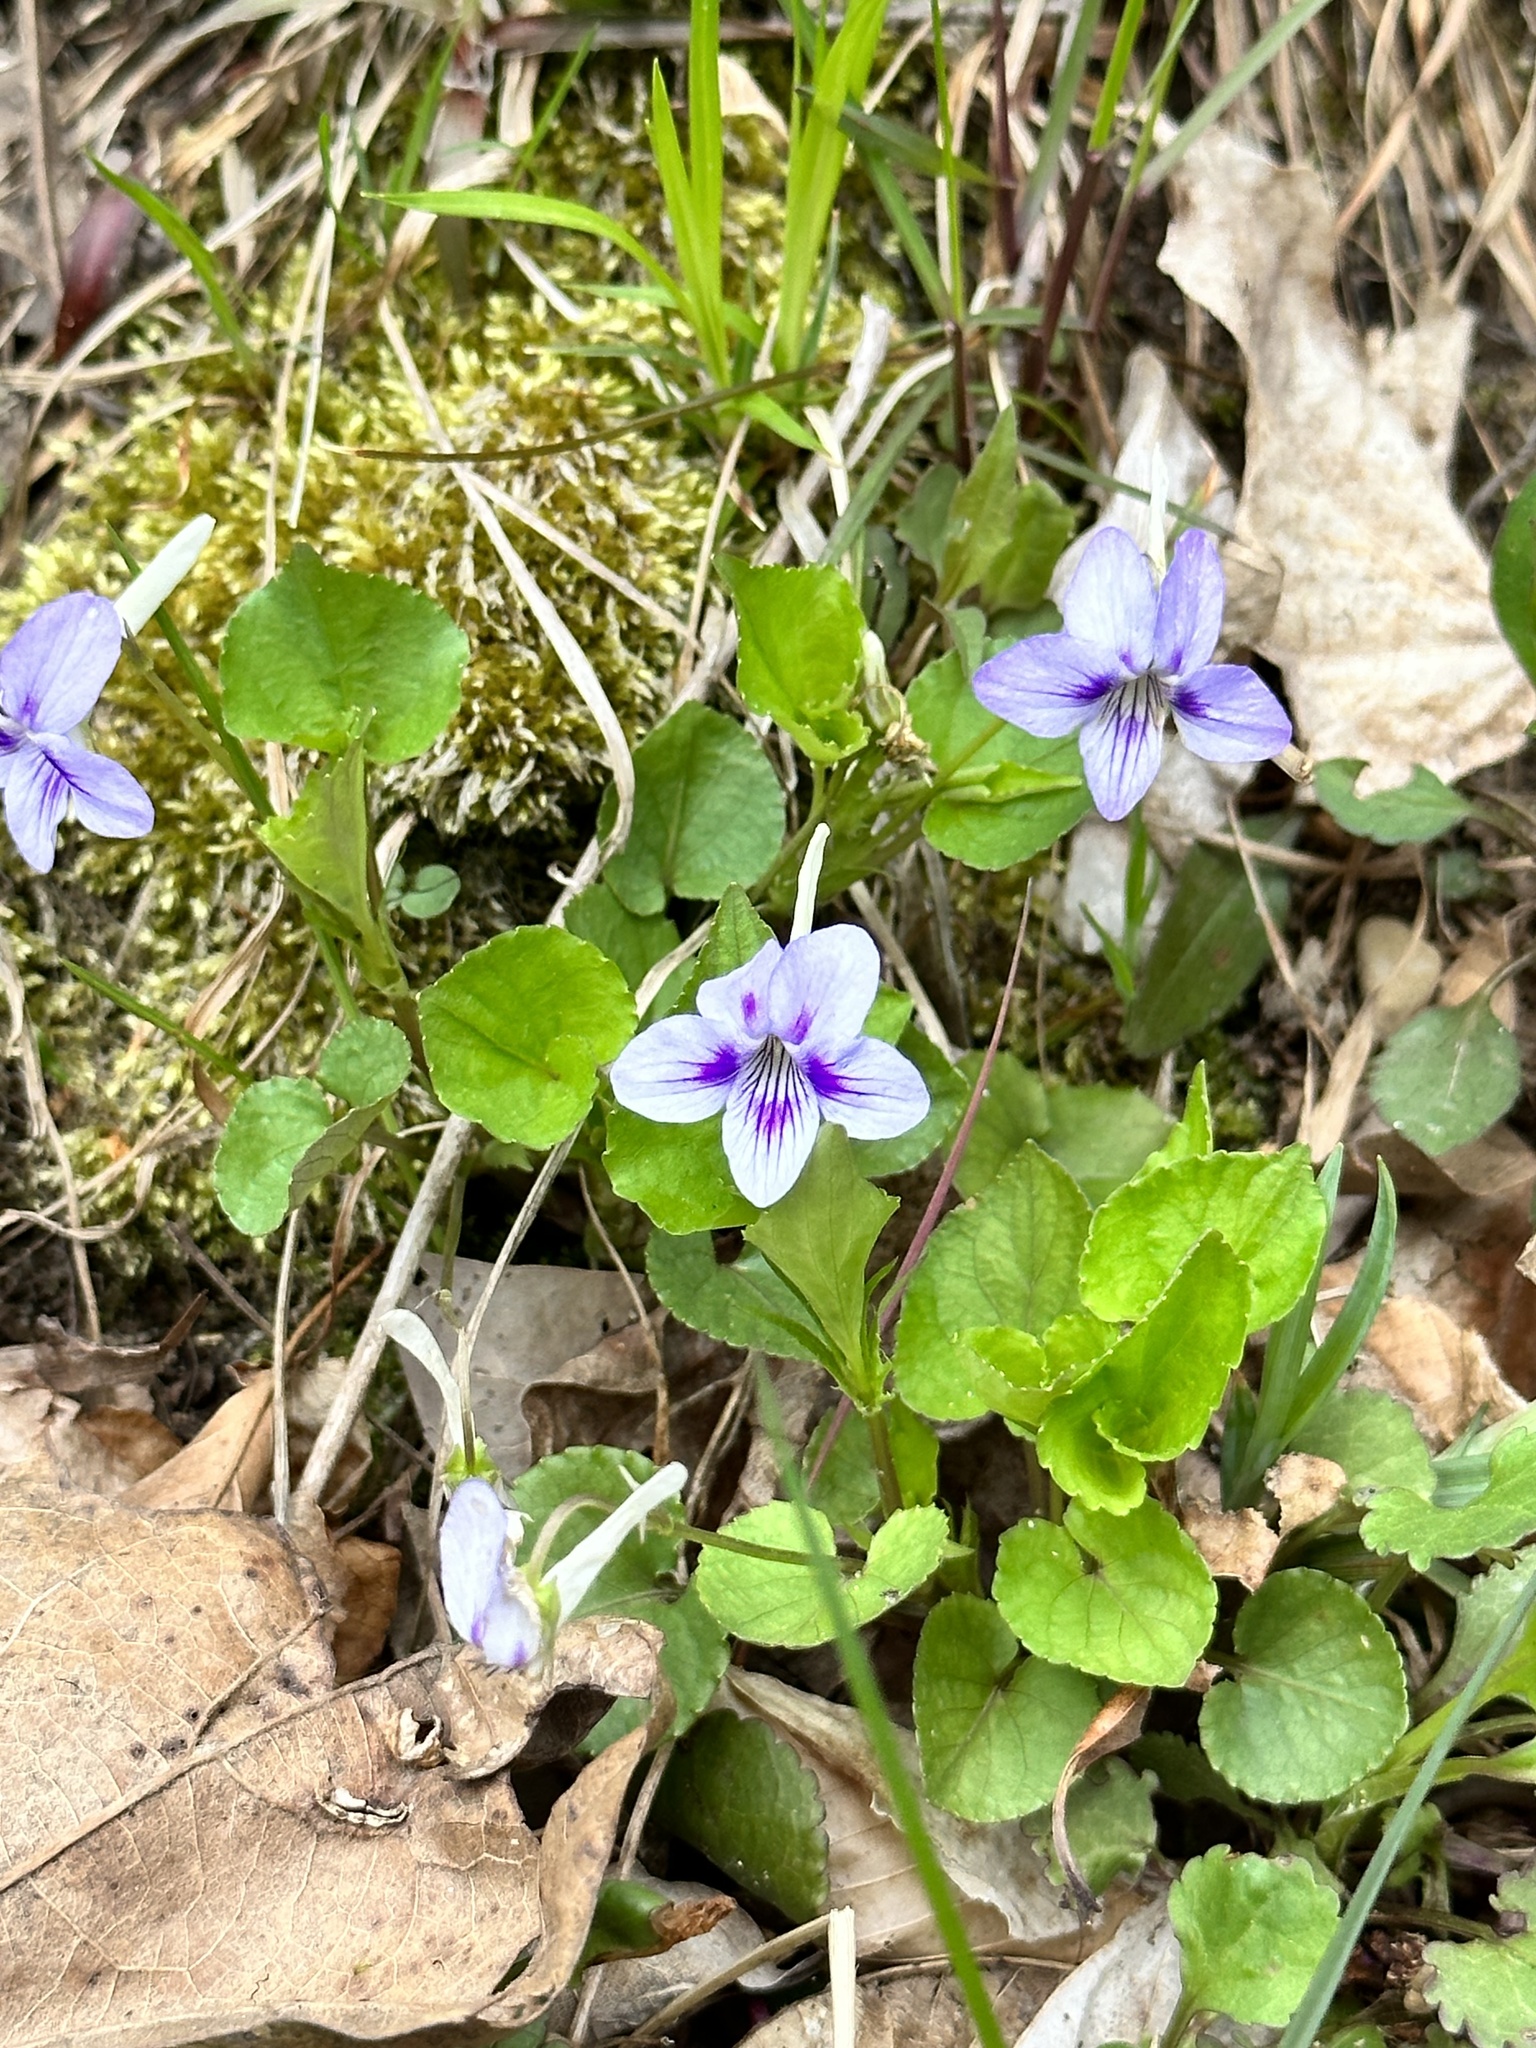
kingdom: Plantae
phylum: Tracheophyta
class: Magnoliopsida
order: Malpighiales
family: Violaceae
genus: Viola
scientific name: Viola rostrata
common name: Long-spur violet
